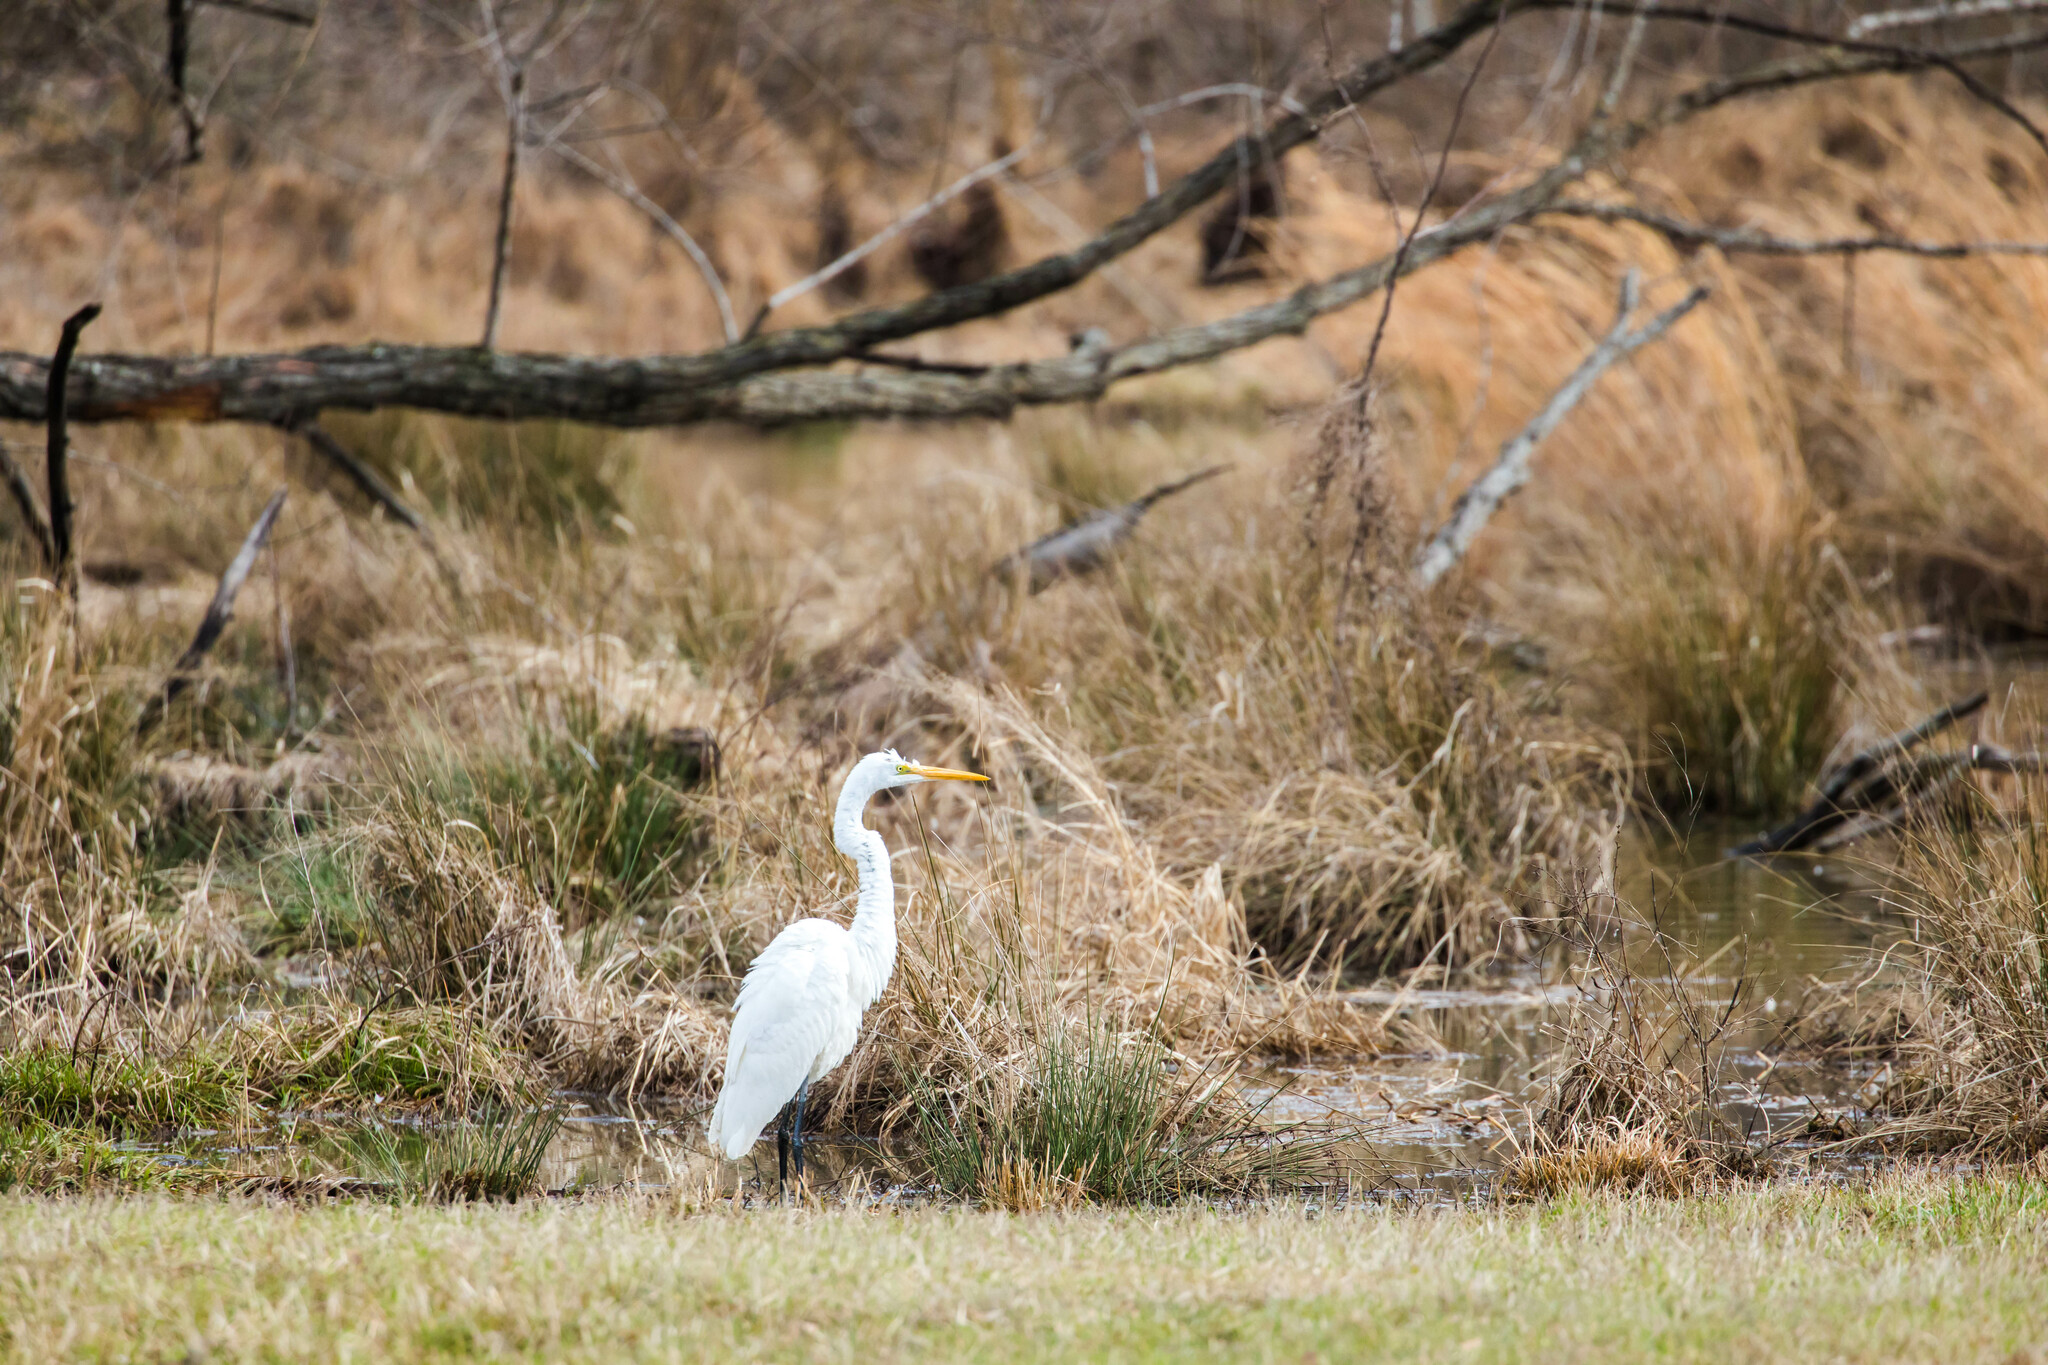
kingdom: Animalia
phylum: Chordata
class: Aves
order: Pelecaniformes
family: Ardeidae
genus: Ardea
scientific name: Ardea alba
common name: Great egret
